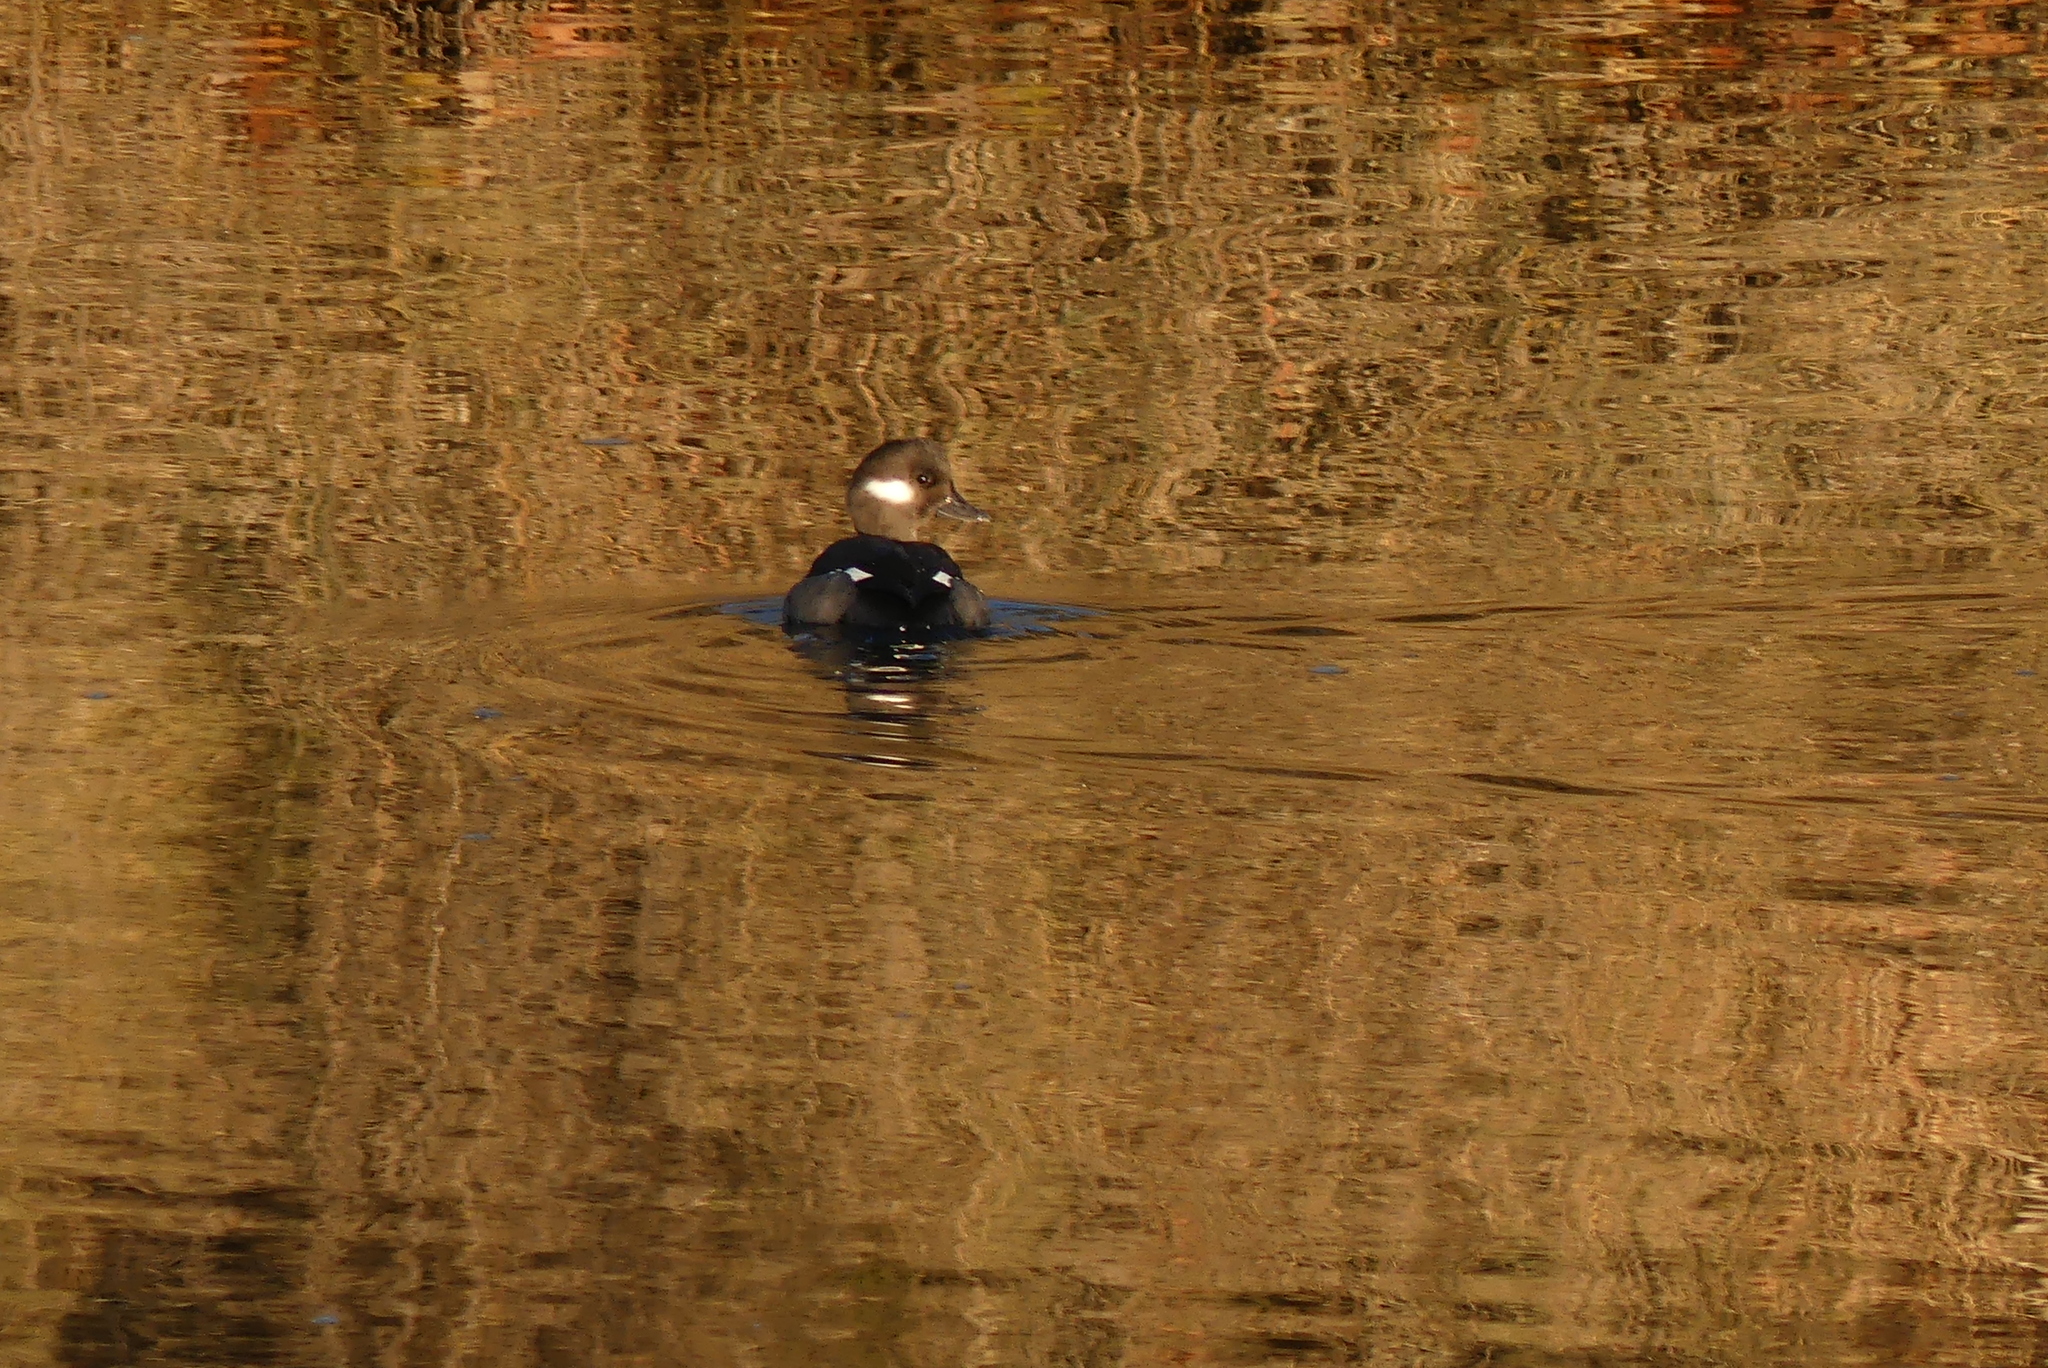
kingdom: Animalia
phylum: Chordata
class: Aves
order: Anseriformes
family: Anatidae
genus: Bucephala
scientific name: Bucephala albeola
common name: Bufflehead
